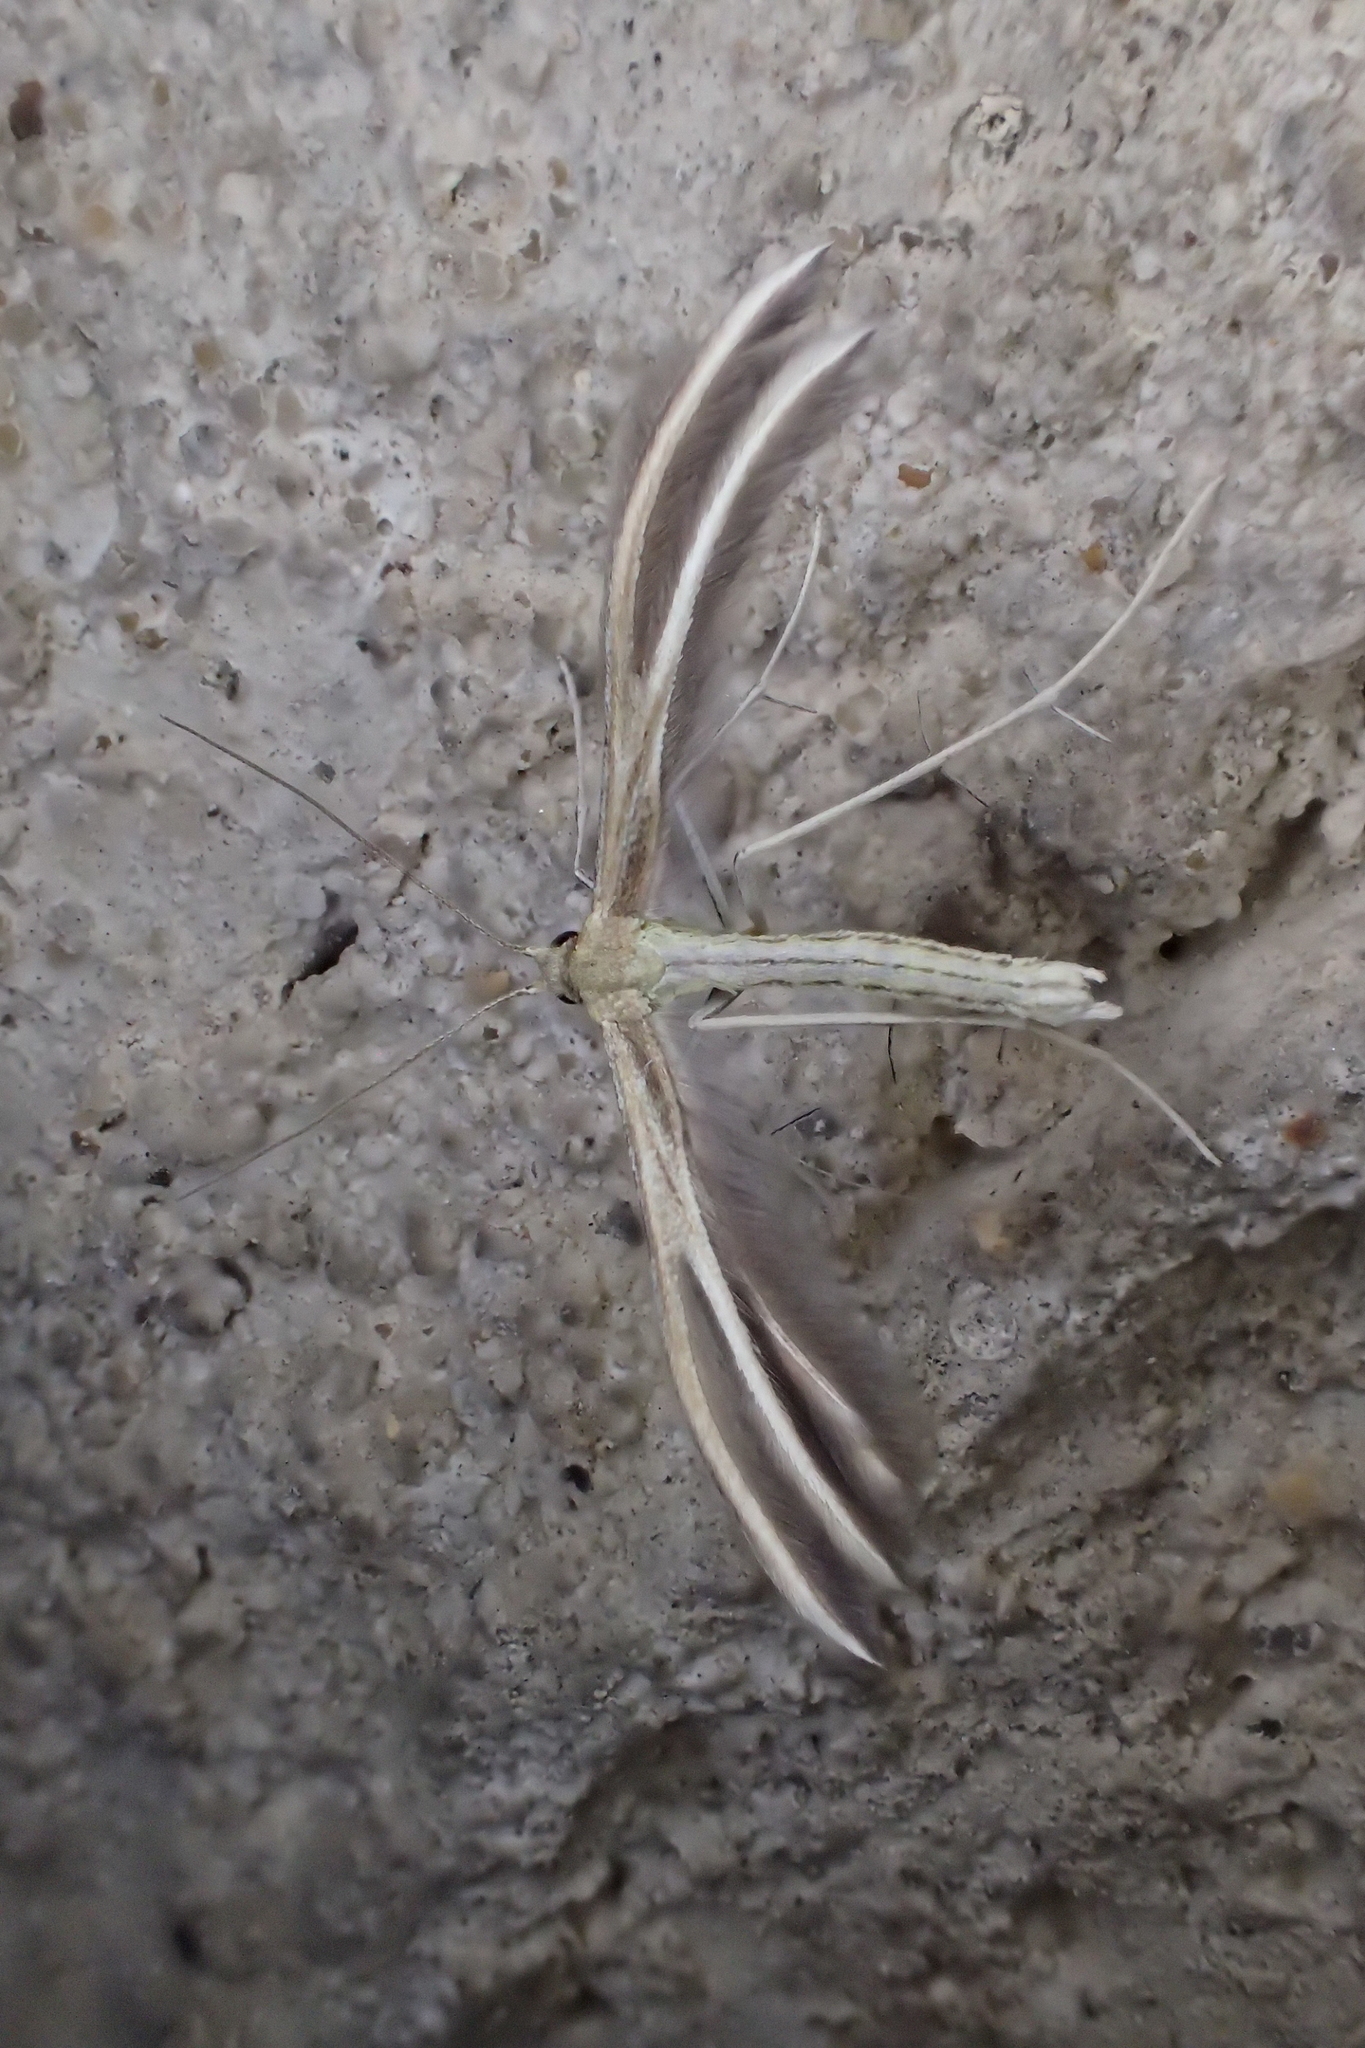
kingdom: Animalia
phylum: Arthropoda
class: Insecta
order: Lepidoptera
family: Pterophoridae
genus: Pterophorus
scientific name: Pterophorus pentadactyla
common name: White plume moth
